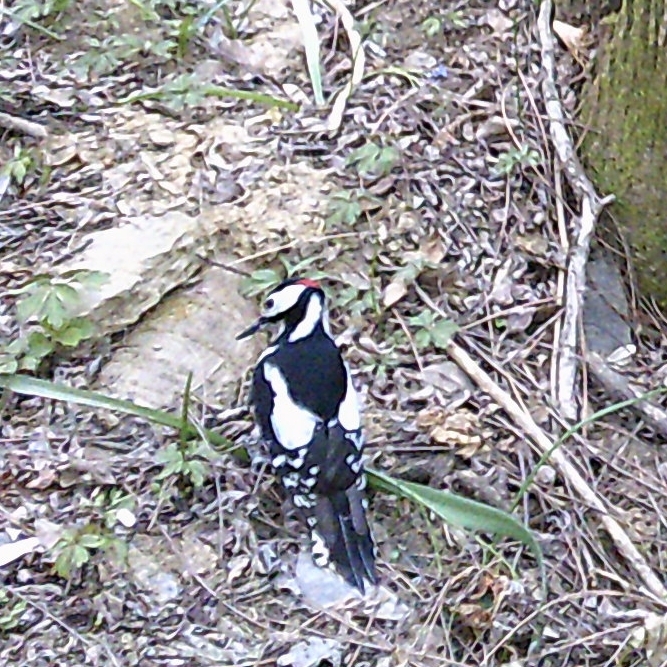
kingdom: Animalia
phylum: Chordata
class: Aves
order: Piciformes
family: Picidae
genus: Dendrocopos
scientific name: Dendrocopos major
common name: Great spotted woodpecker
